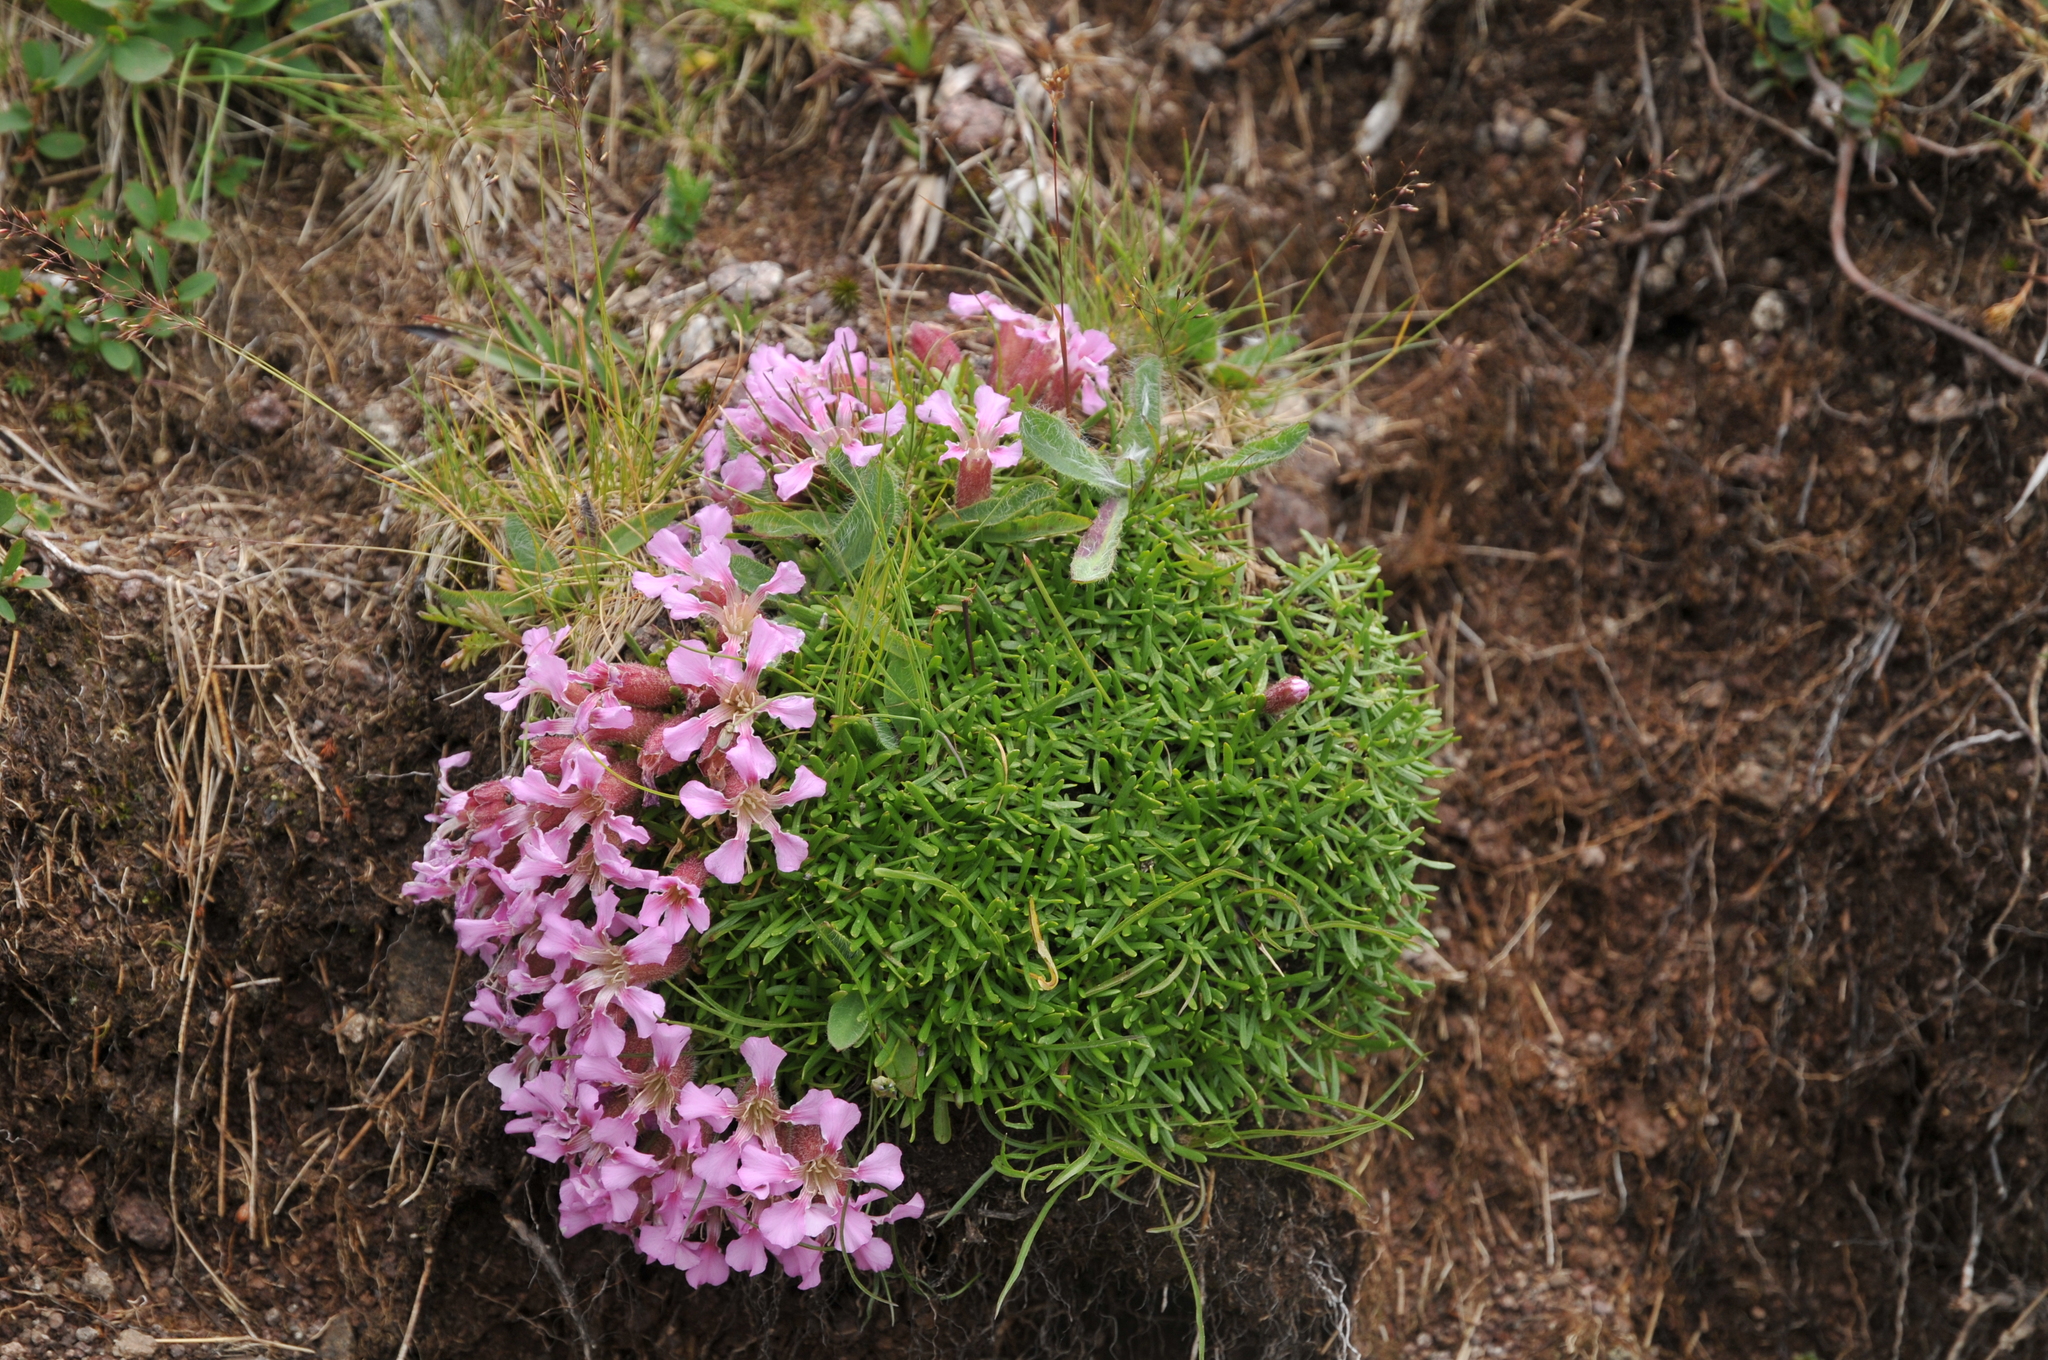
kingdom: Plantae
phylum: Tracheophyta
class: Magnoliopsida
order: Caryophyllales
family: Caryophyllaceae
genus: Saponaria
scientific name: Saponaria pumila
